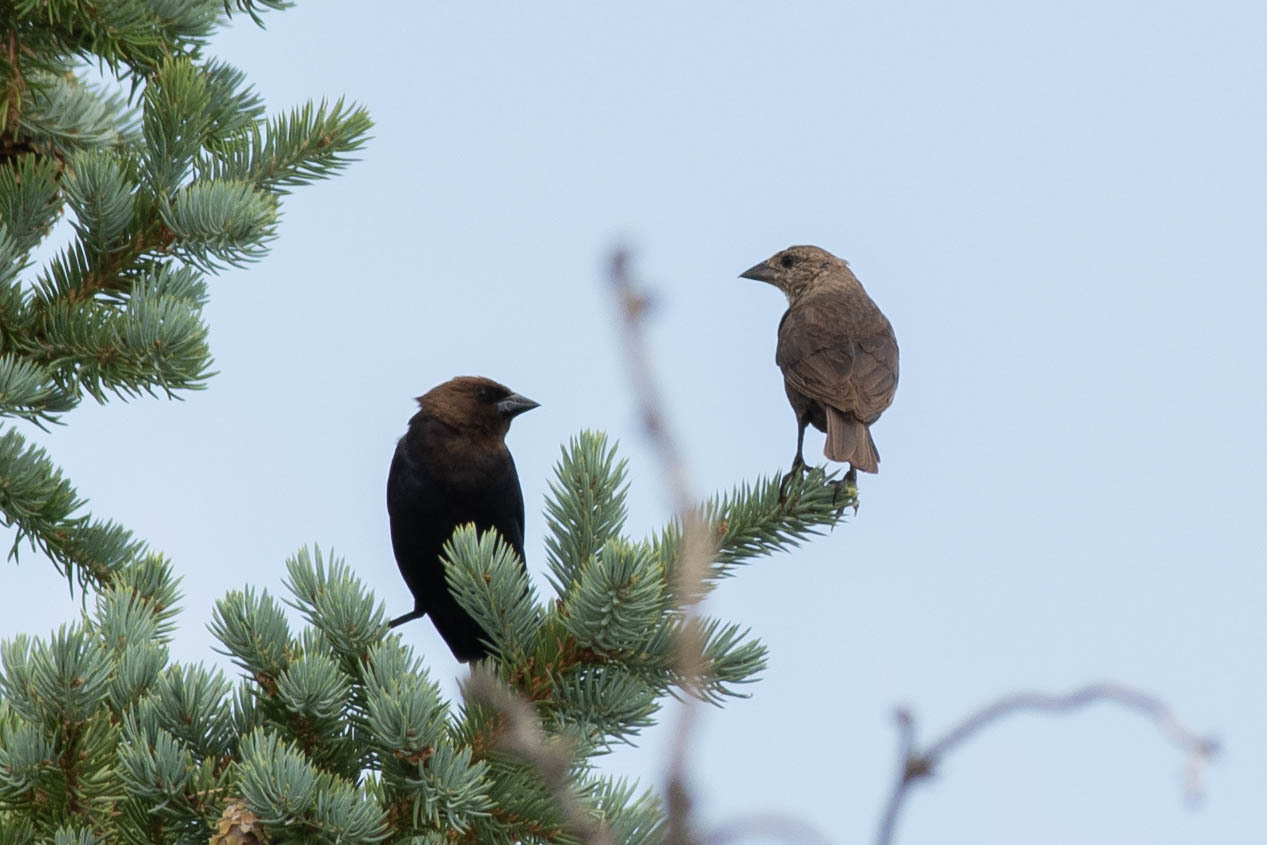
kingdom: Animalia
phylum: Chordata
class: Aves
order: Passeriformes
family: Icteridae
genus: Molothrus
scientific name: Molothrus ater
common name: Brown-headed cowbird
